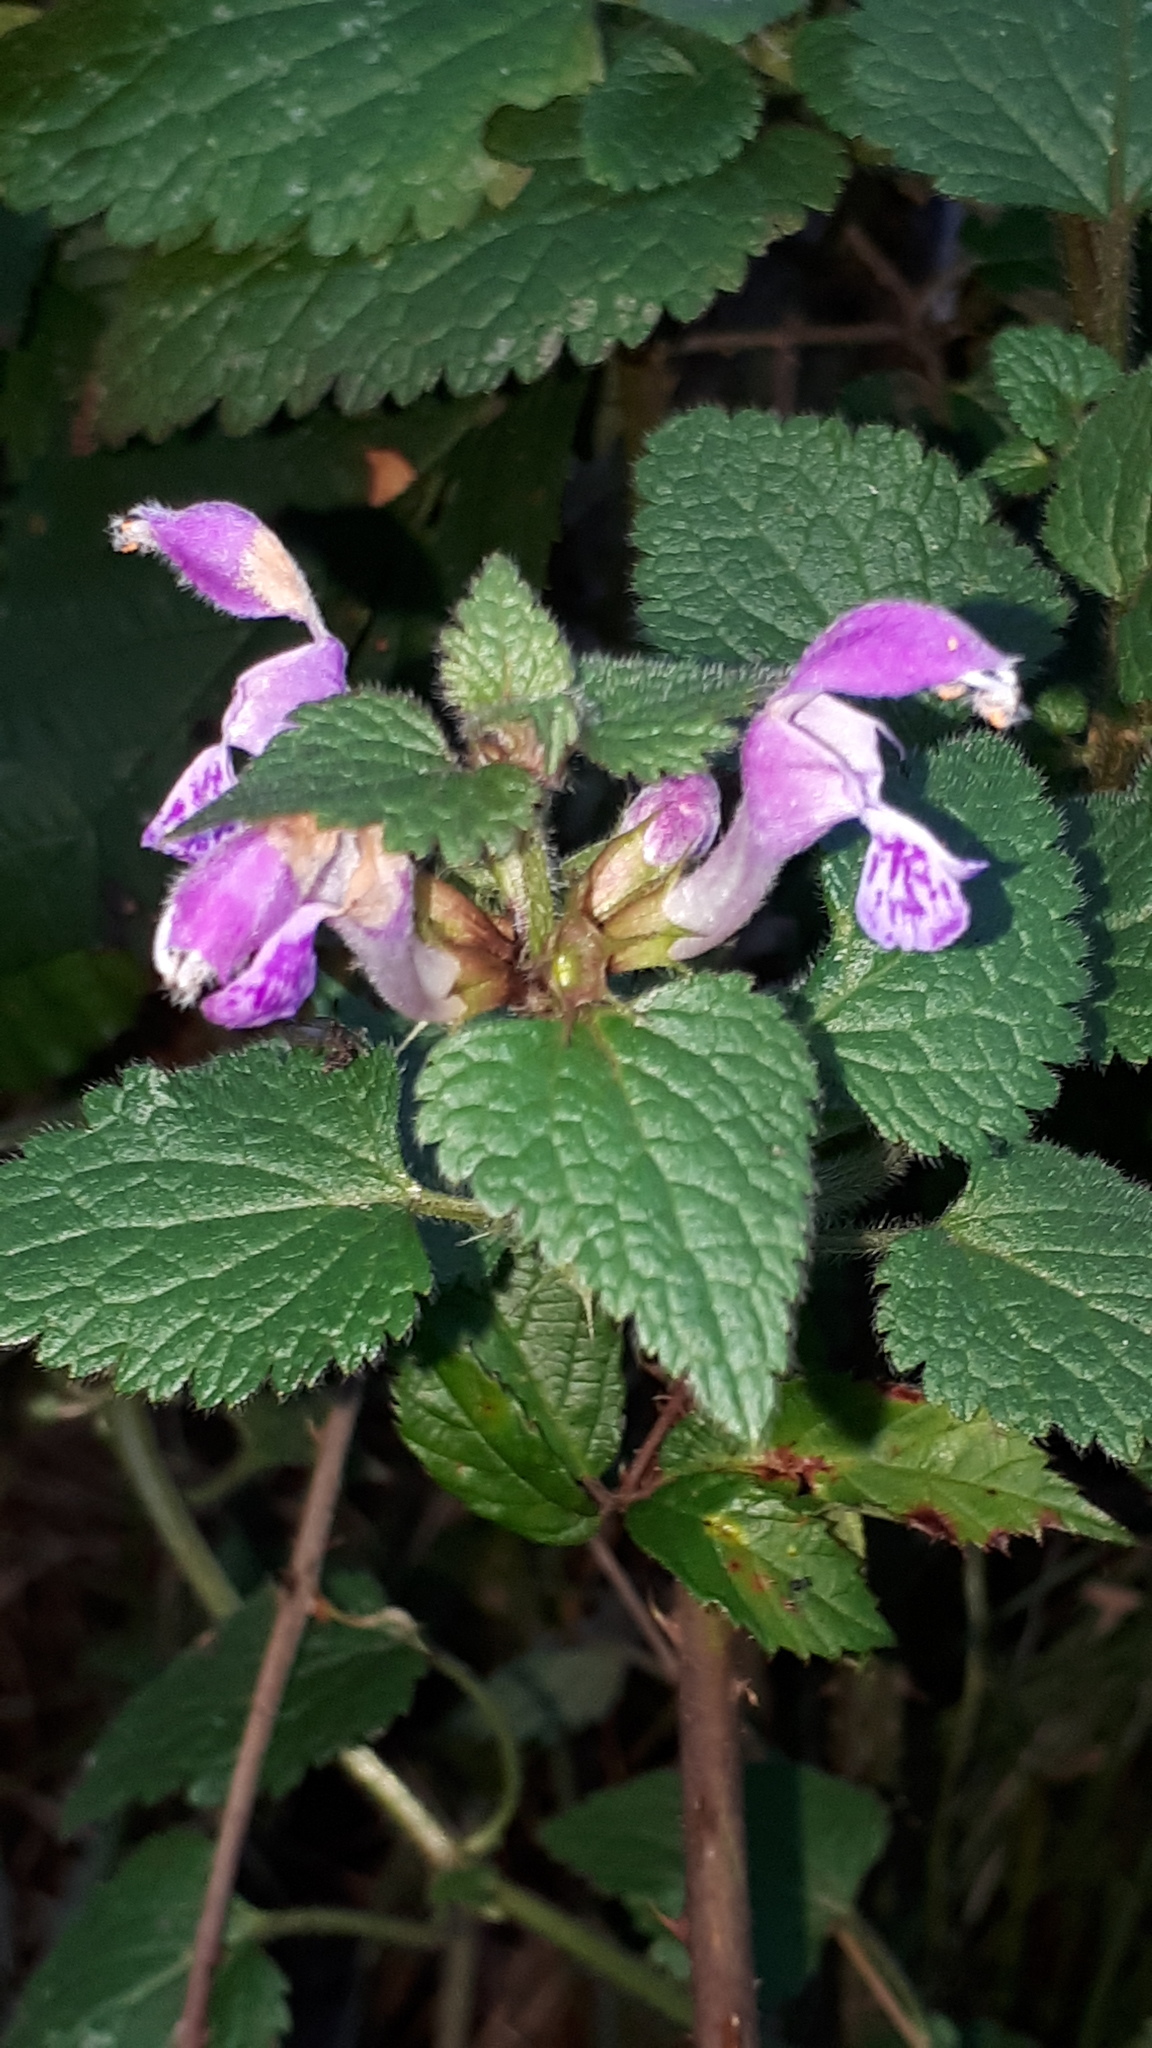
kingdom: Plantae
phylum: Tracheophyta
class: Magnoliopsida
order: Lamiales
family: Lamiaceae
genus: Lamium
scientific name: Lamium maculatum
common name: Spotted dead-nettle
